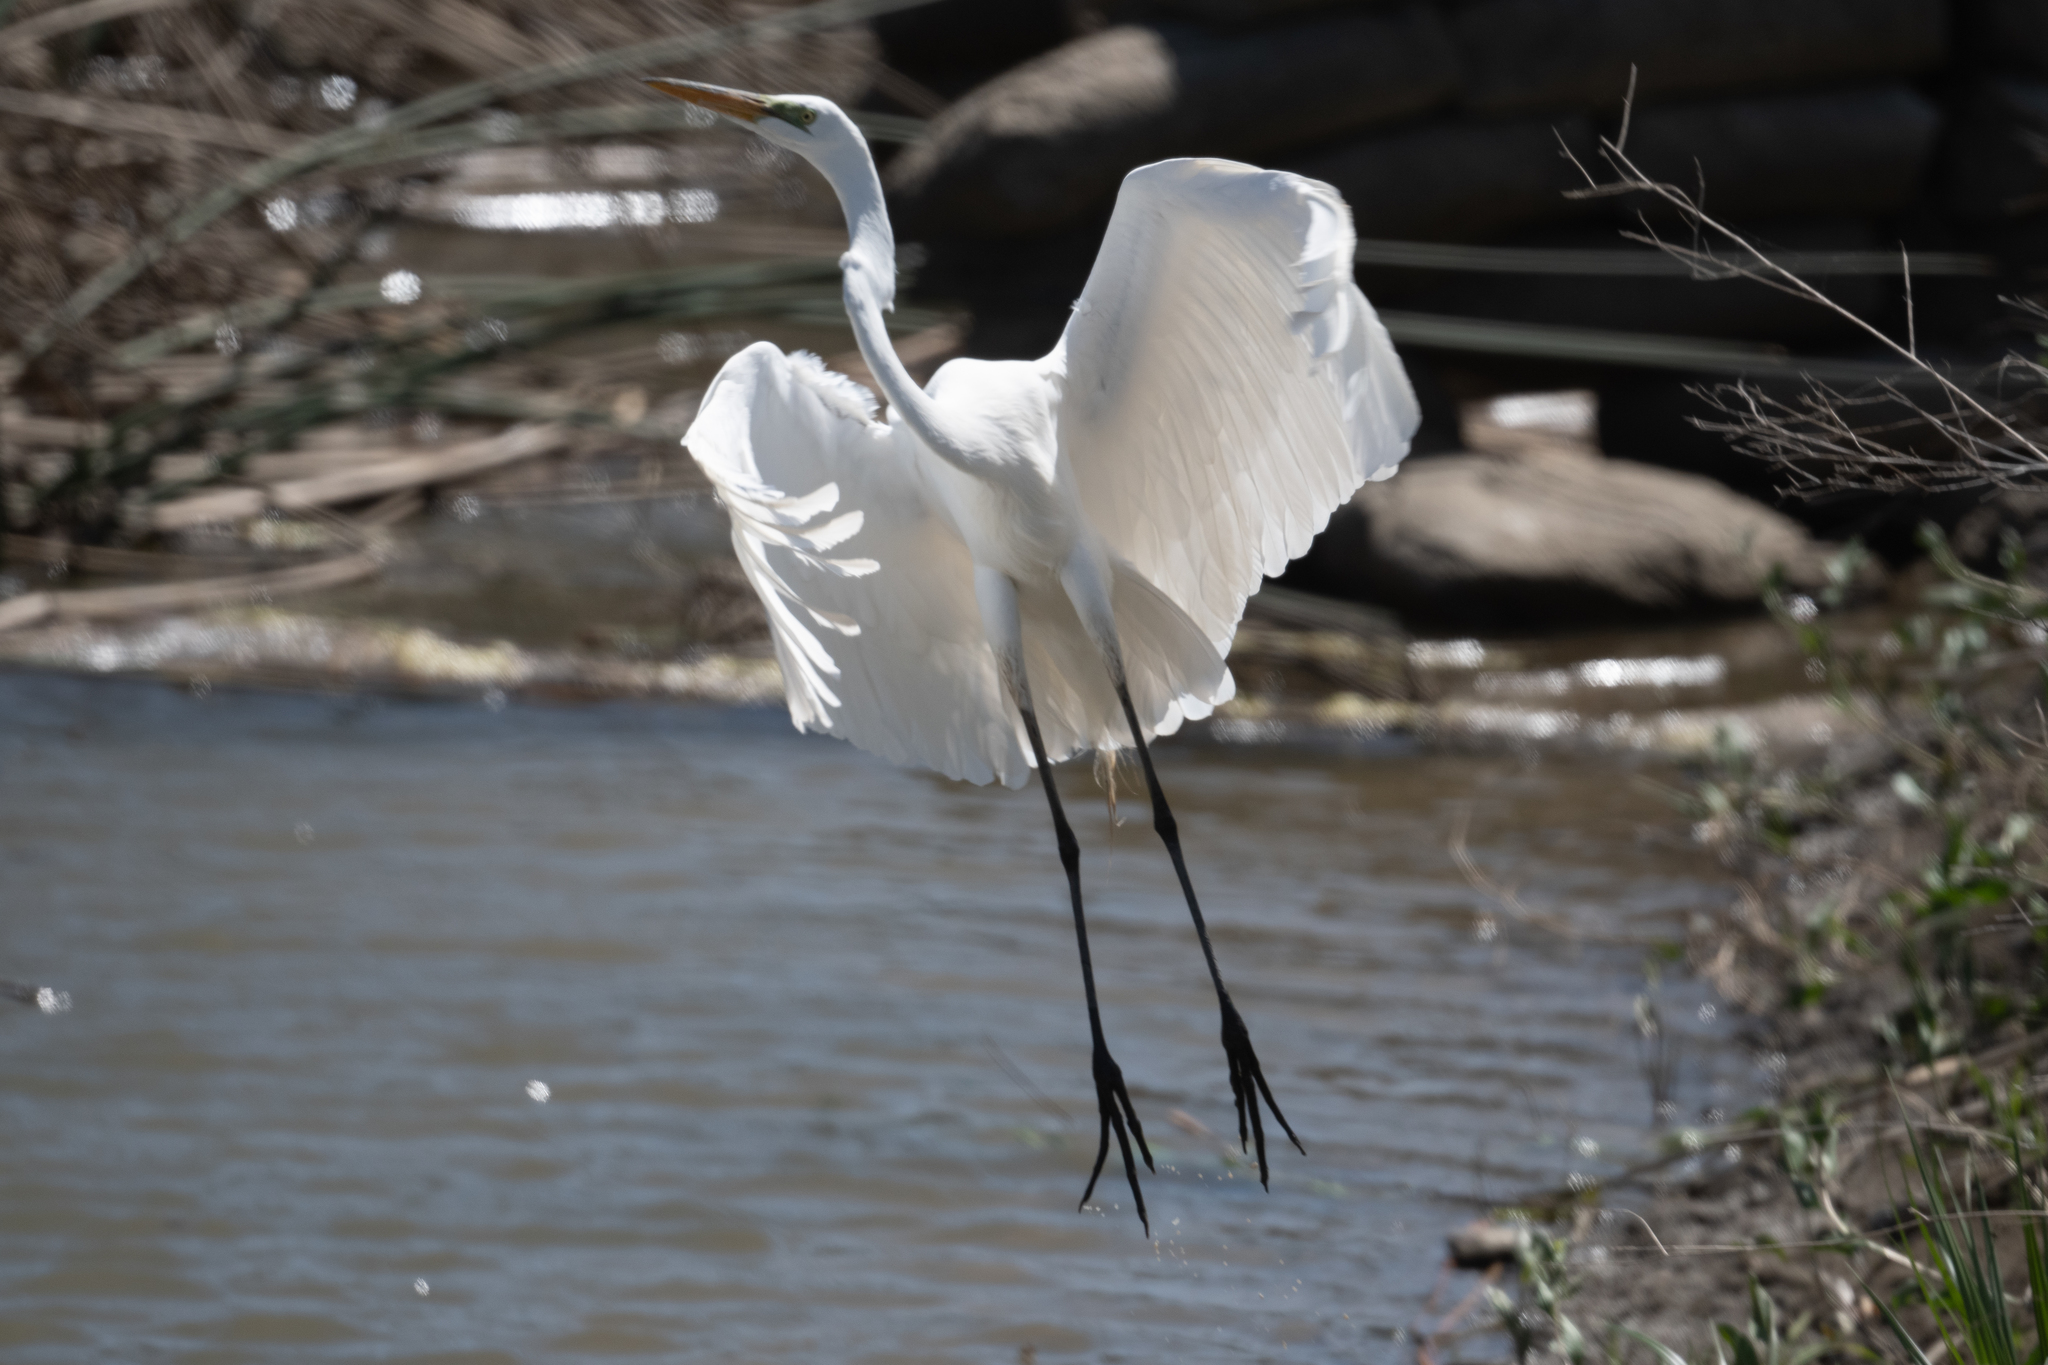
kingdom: Animalia
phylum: Chordata
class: Aves
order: Pelecaniformes
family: Ardeidae
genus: Ardea
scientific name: Ardea alba
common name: Great egret
